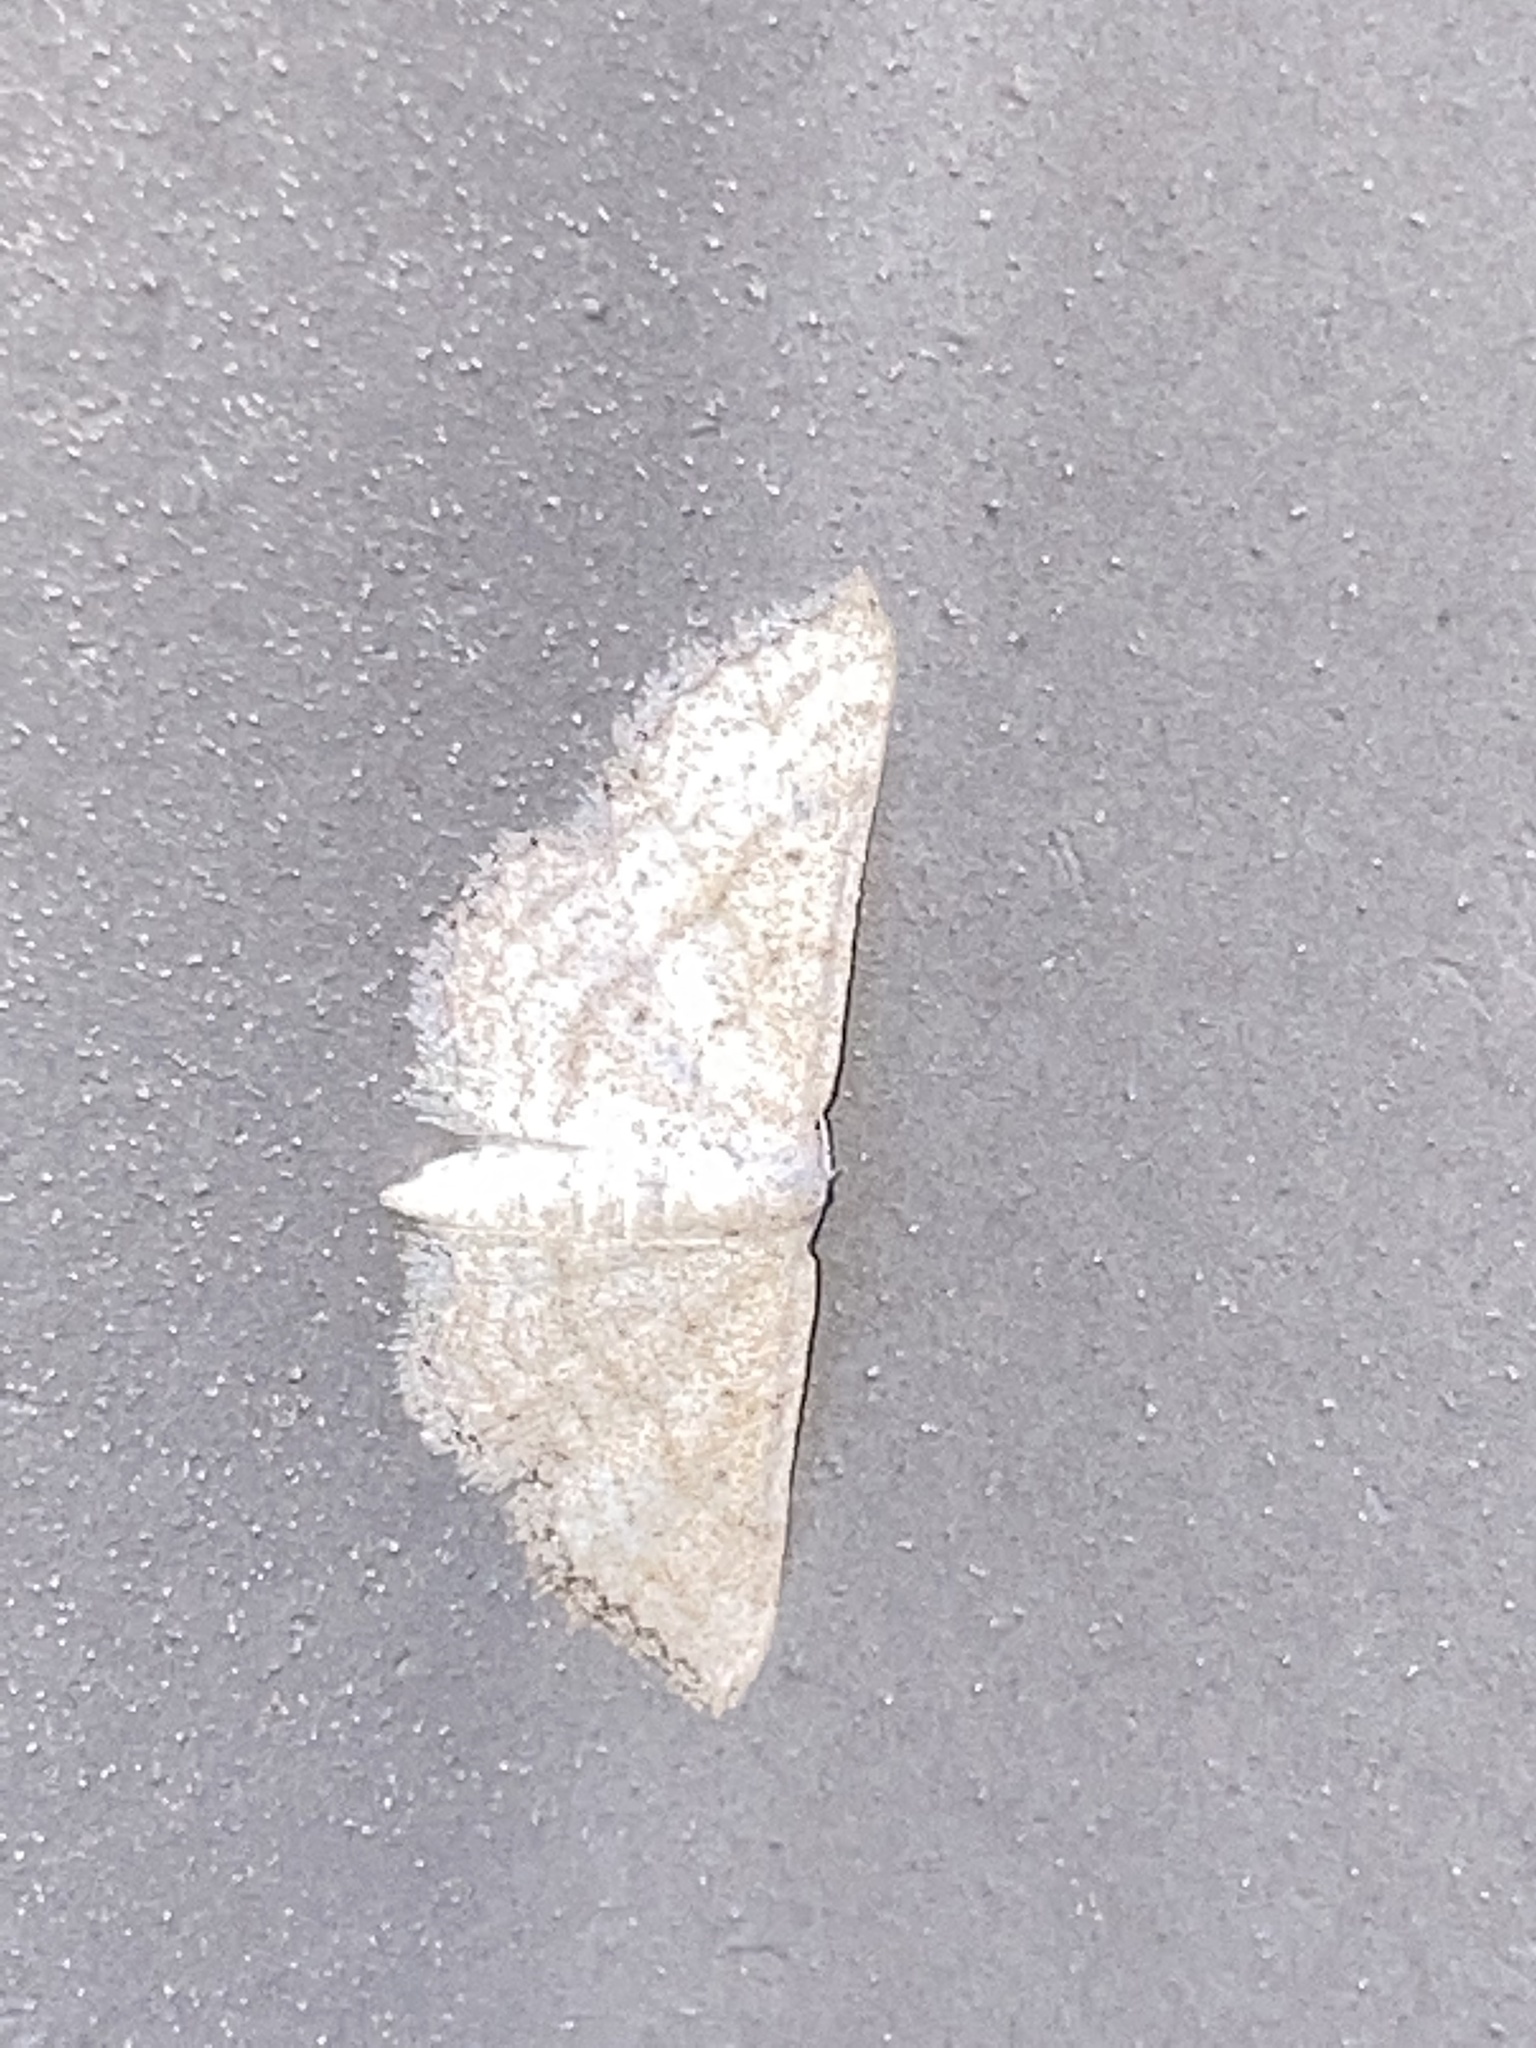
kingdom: Animalia
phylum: Arthropoda
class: Insecta
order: Lepidoptera
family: Geometridae
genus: Lobocleta
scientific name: Lobocleta ossularia
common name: Drab brown wave
